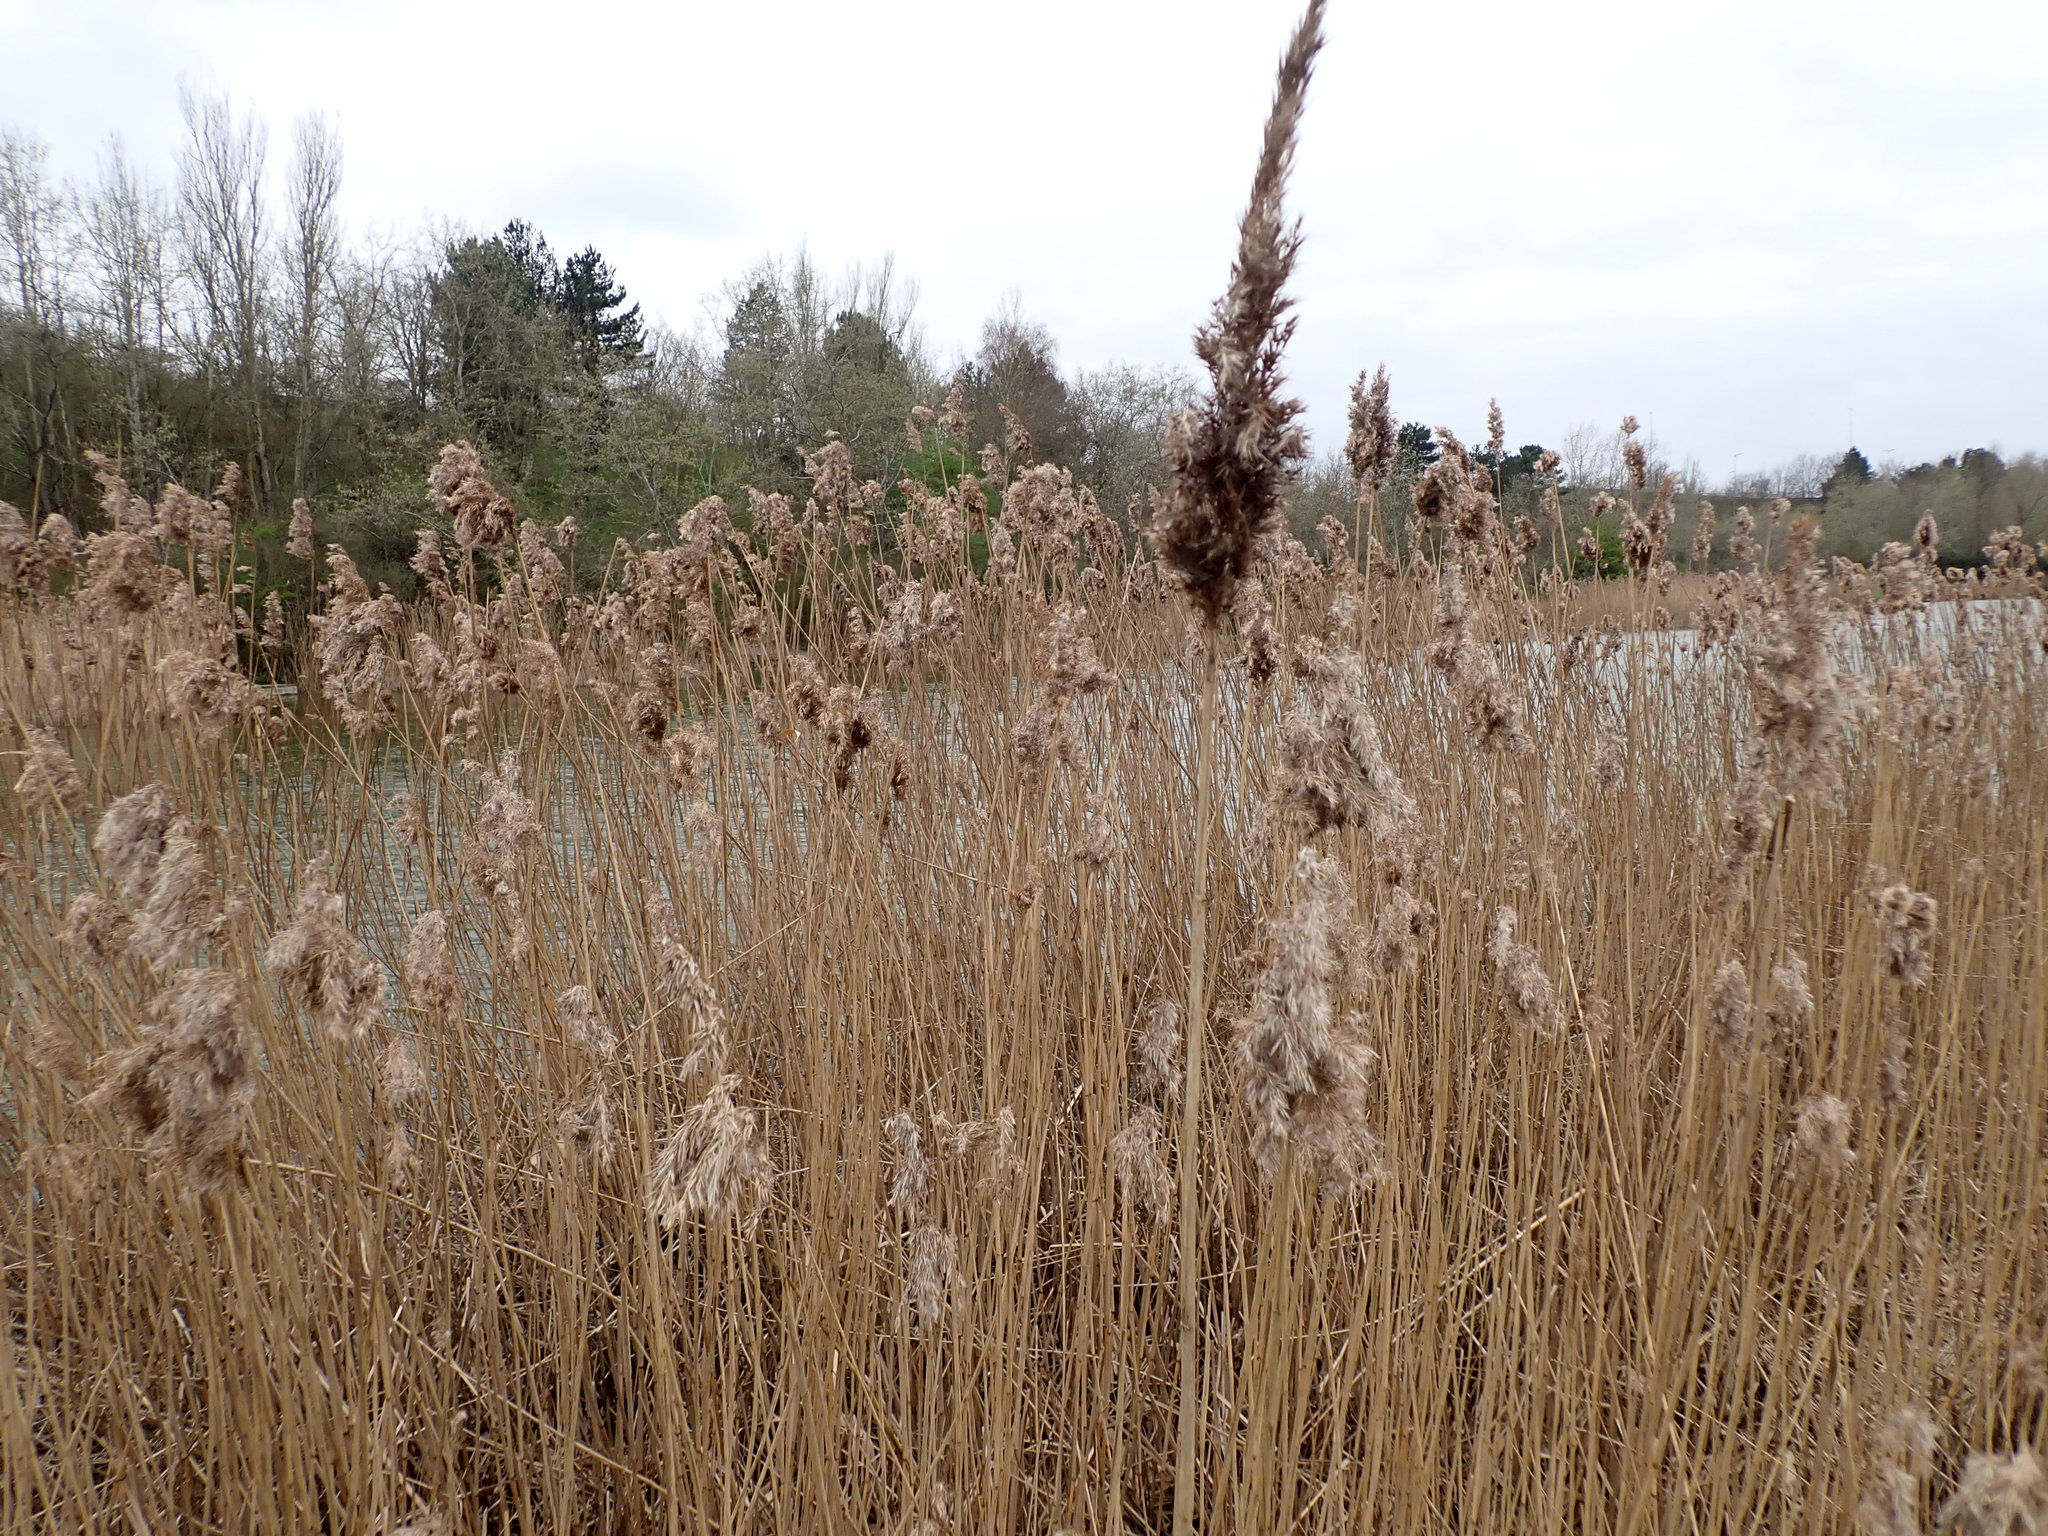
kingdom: Plantae
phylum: Tracheophyta
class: Liliopsida
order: Poales
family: Poaceae
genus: Phragmites
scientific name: Phragmites australis
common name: Common reed
